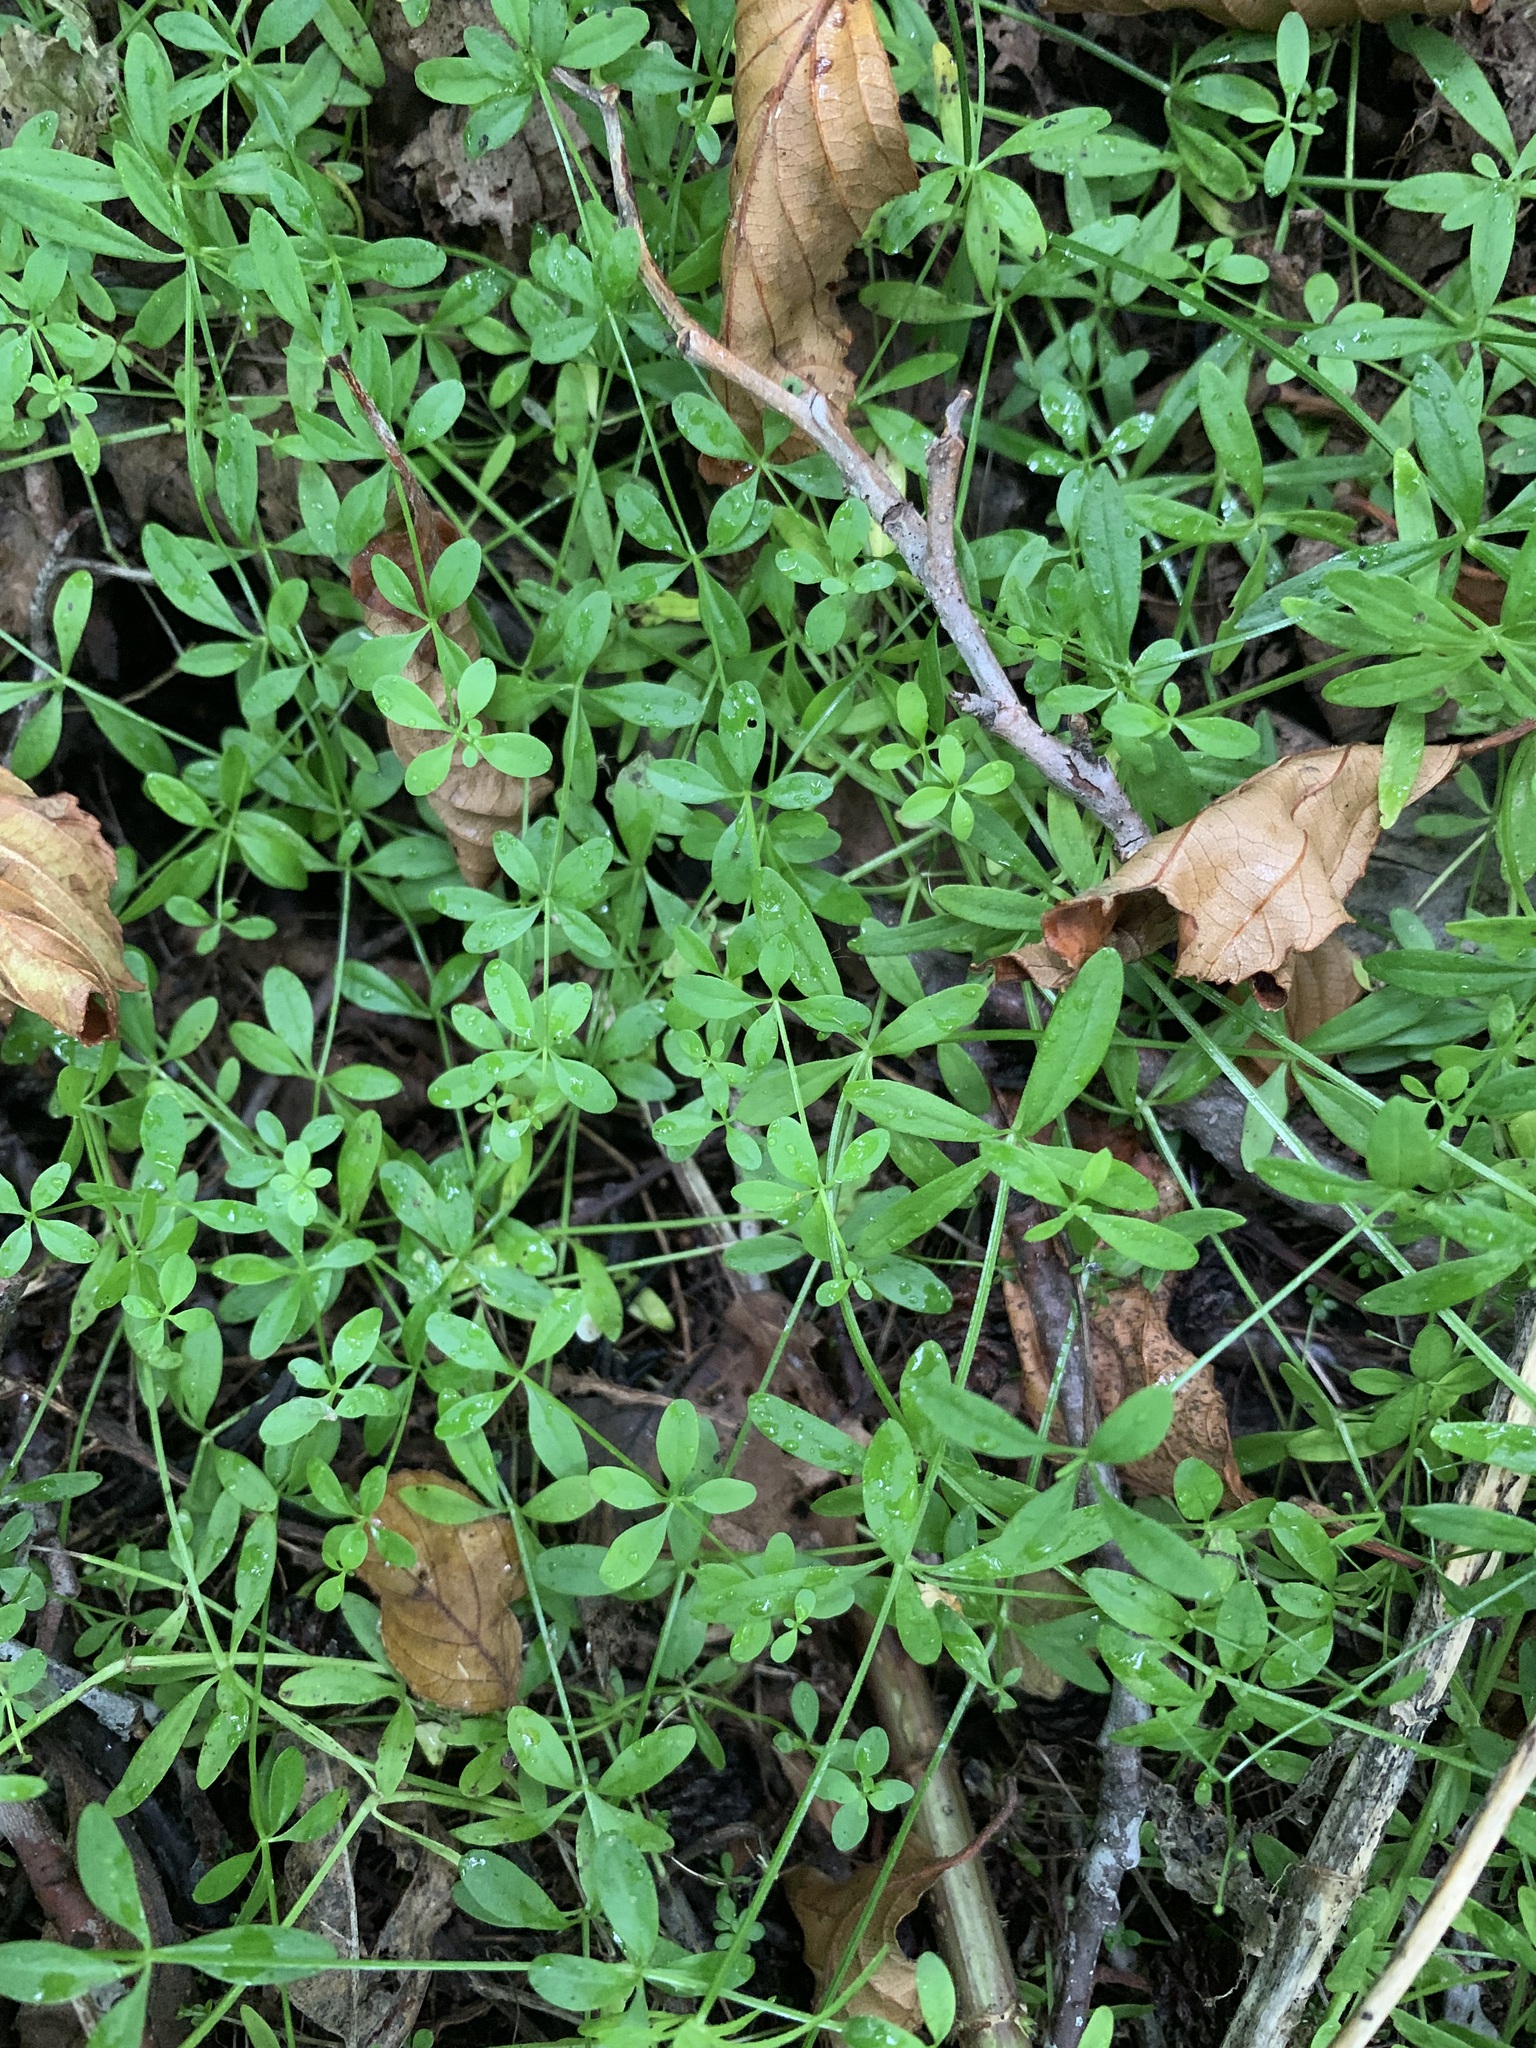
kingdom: Plantae
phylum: Tracheophyta
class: Magnoliopsida
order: Gentianales
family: Rubiaceae
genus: Galium
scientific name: Galium palustre
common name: Common marsh-bedstraw
